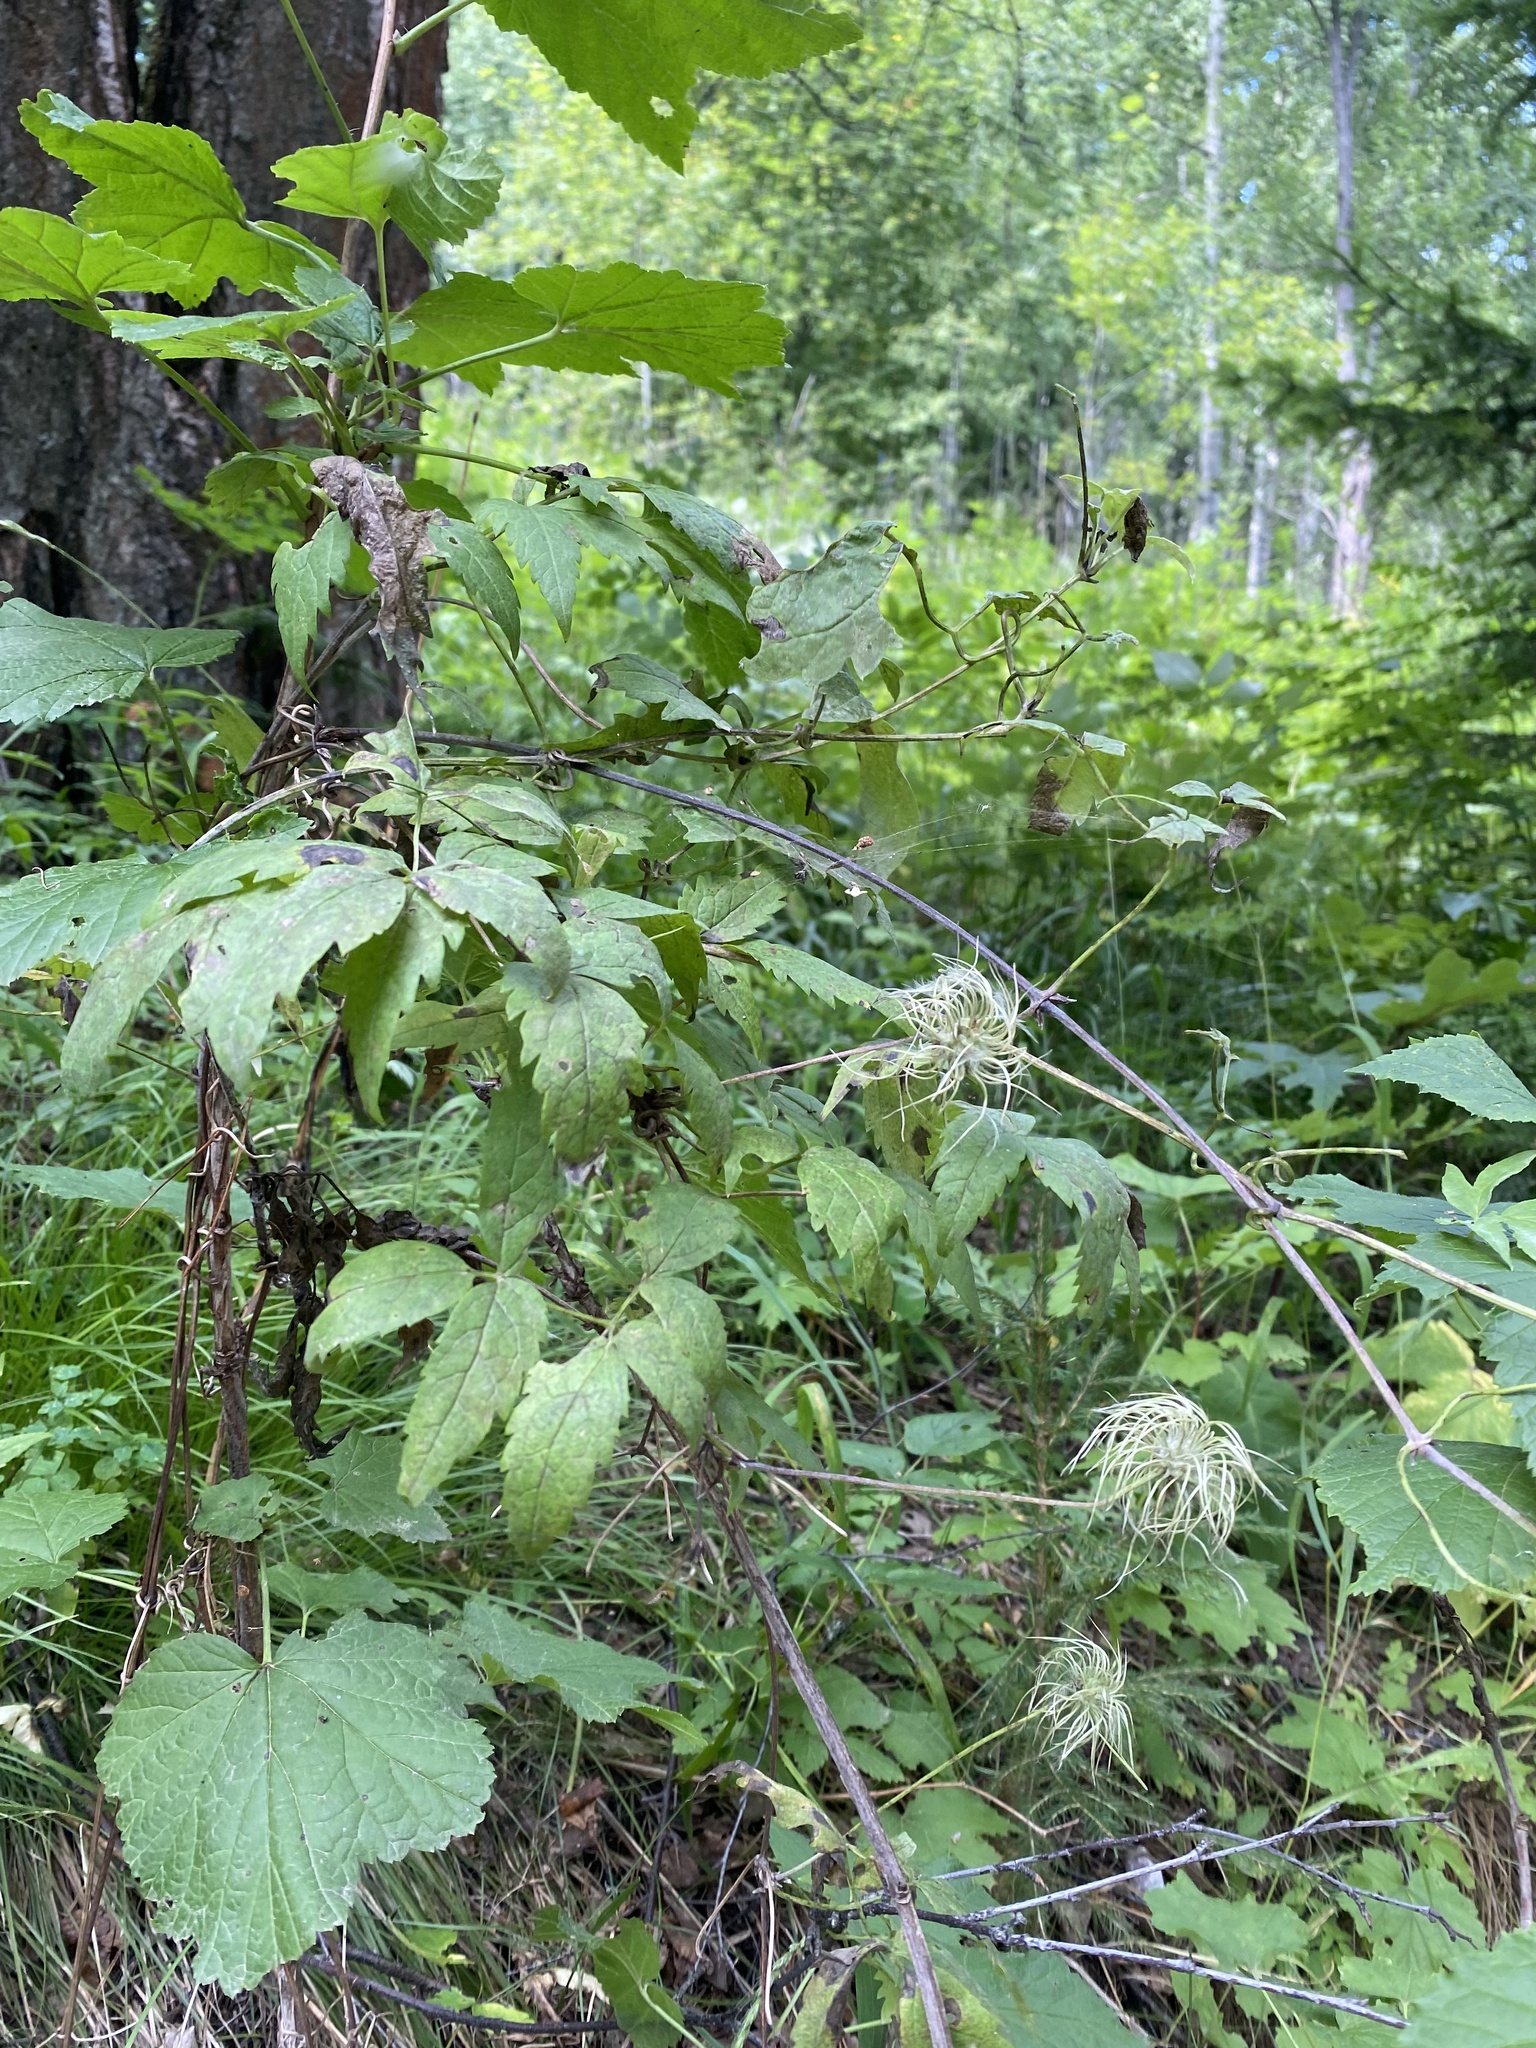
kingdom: Plantae
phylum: Tracheophyta
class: Magnoliopsida
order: Ranunculales
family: Ranunculaceae
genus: Clematis
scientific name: Clematis sibirica
